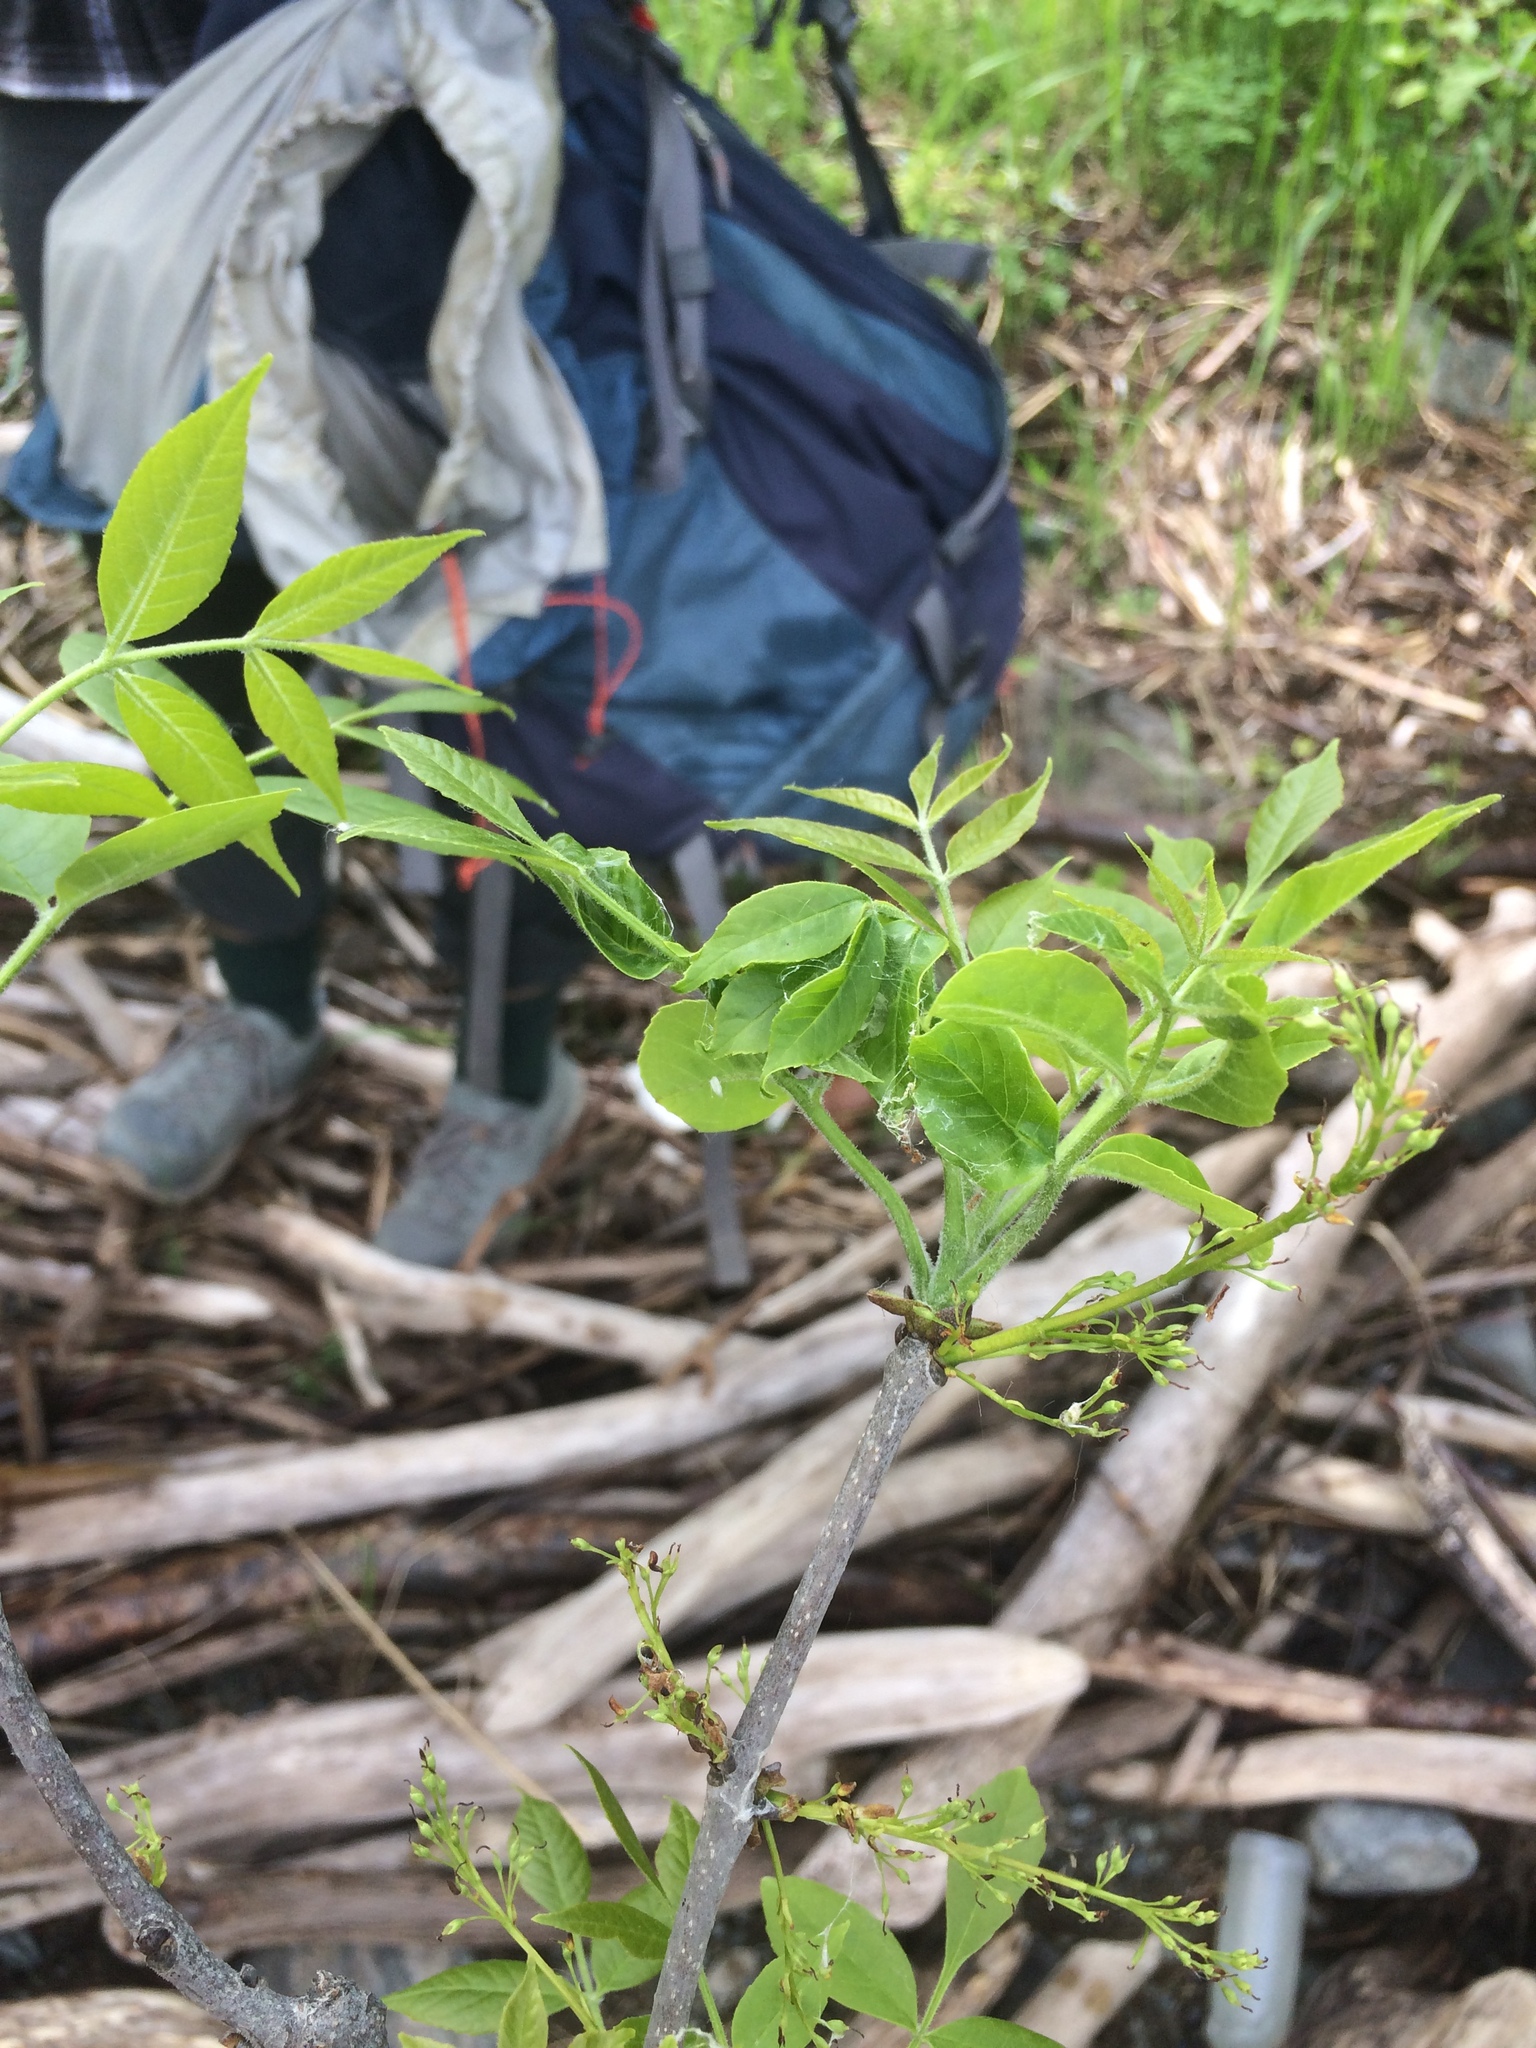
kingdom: Plantae
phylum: Tracheophyta
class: Magnoliopsida
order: Lamiales
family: Oleaceae
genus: Fraxinus
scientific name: Fraxinus pennsylvanica
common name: Green ash
